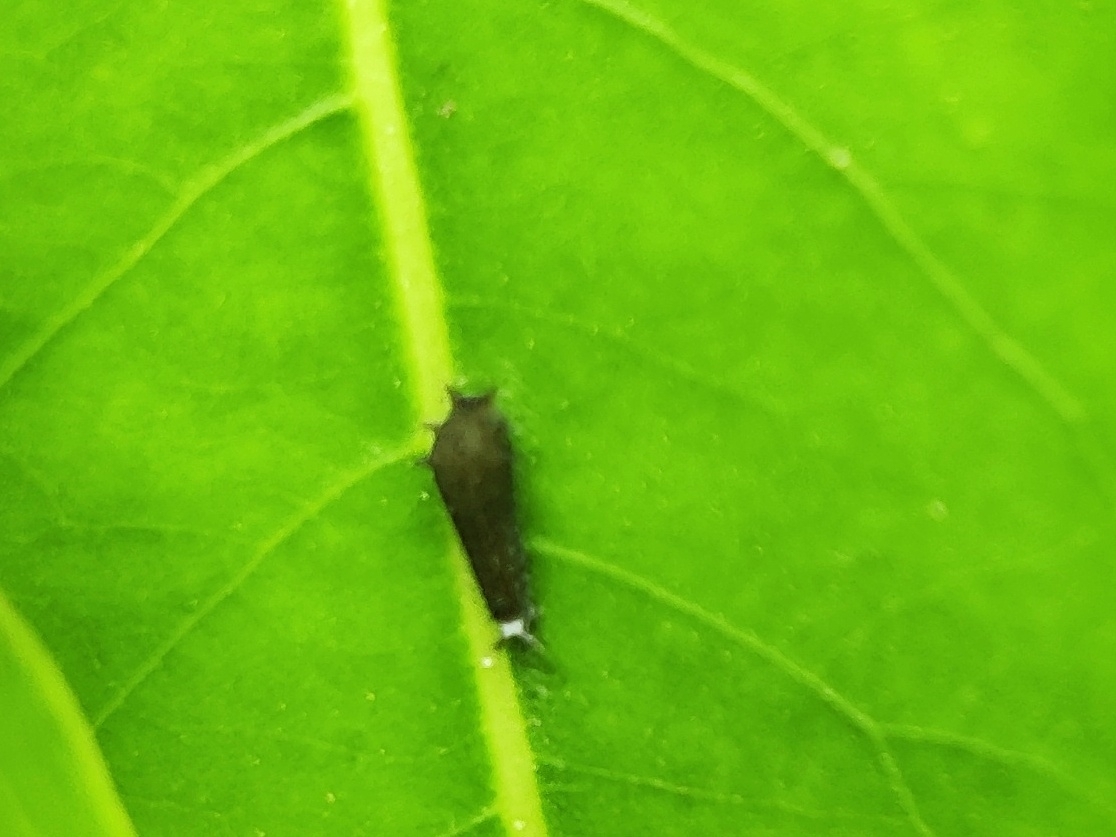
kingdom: Animalia
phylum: Arthropoda
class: Insecta
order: Lepidoptera
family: Papilionidae
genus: Graphium
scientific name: Graphium doson
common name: Common jay
